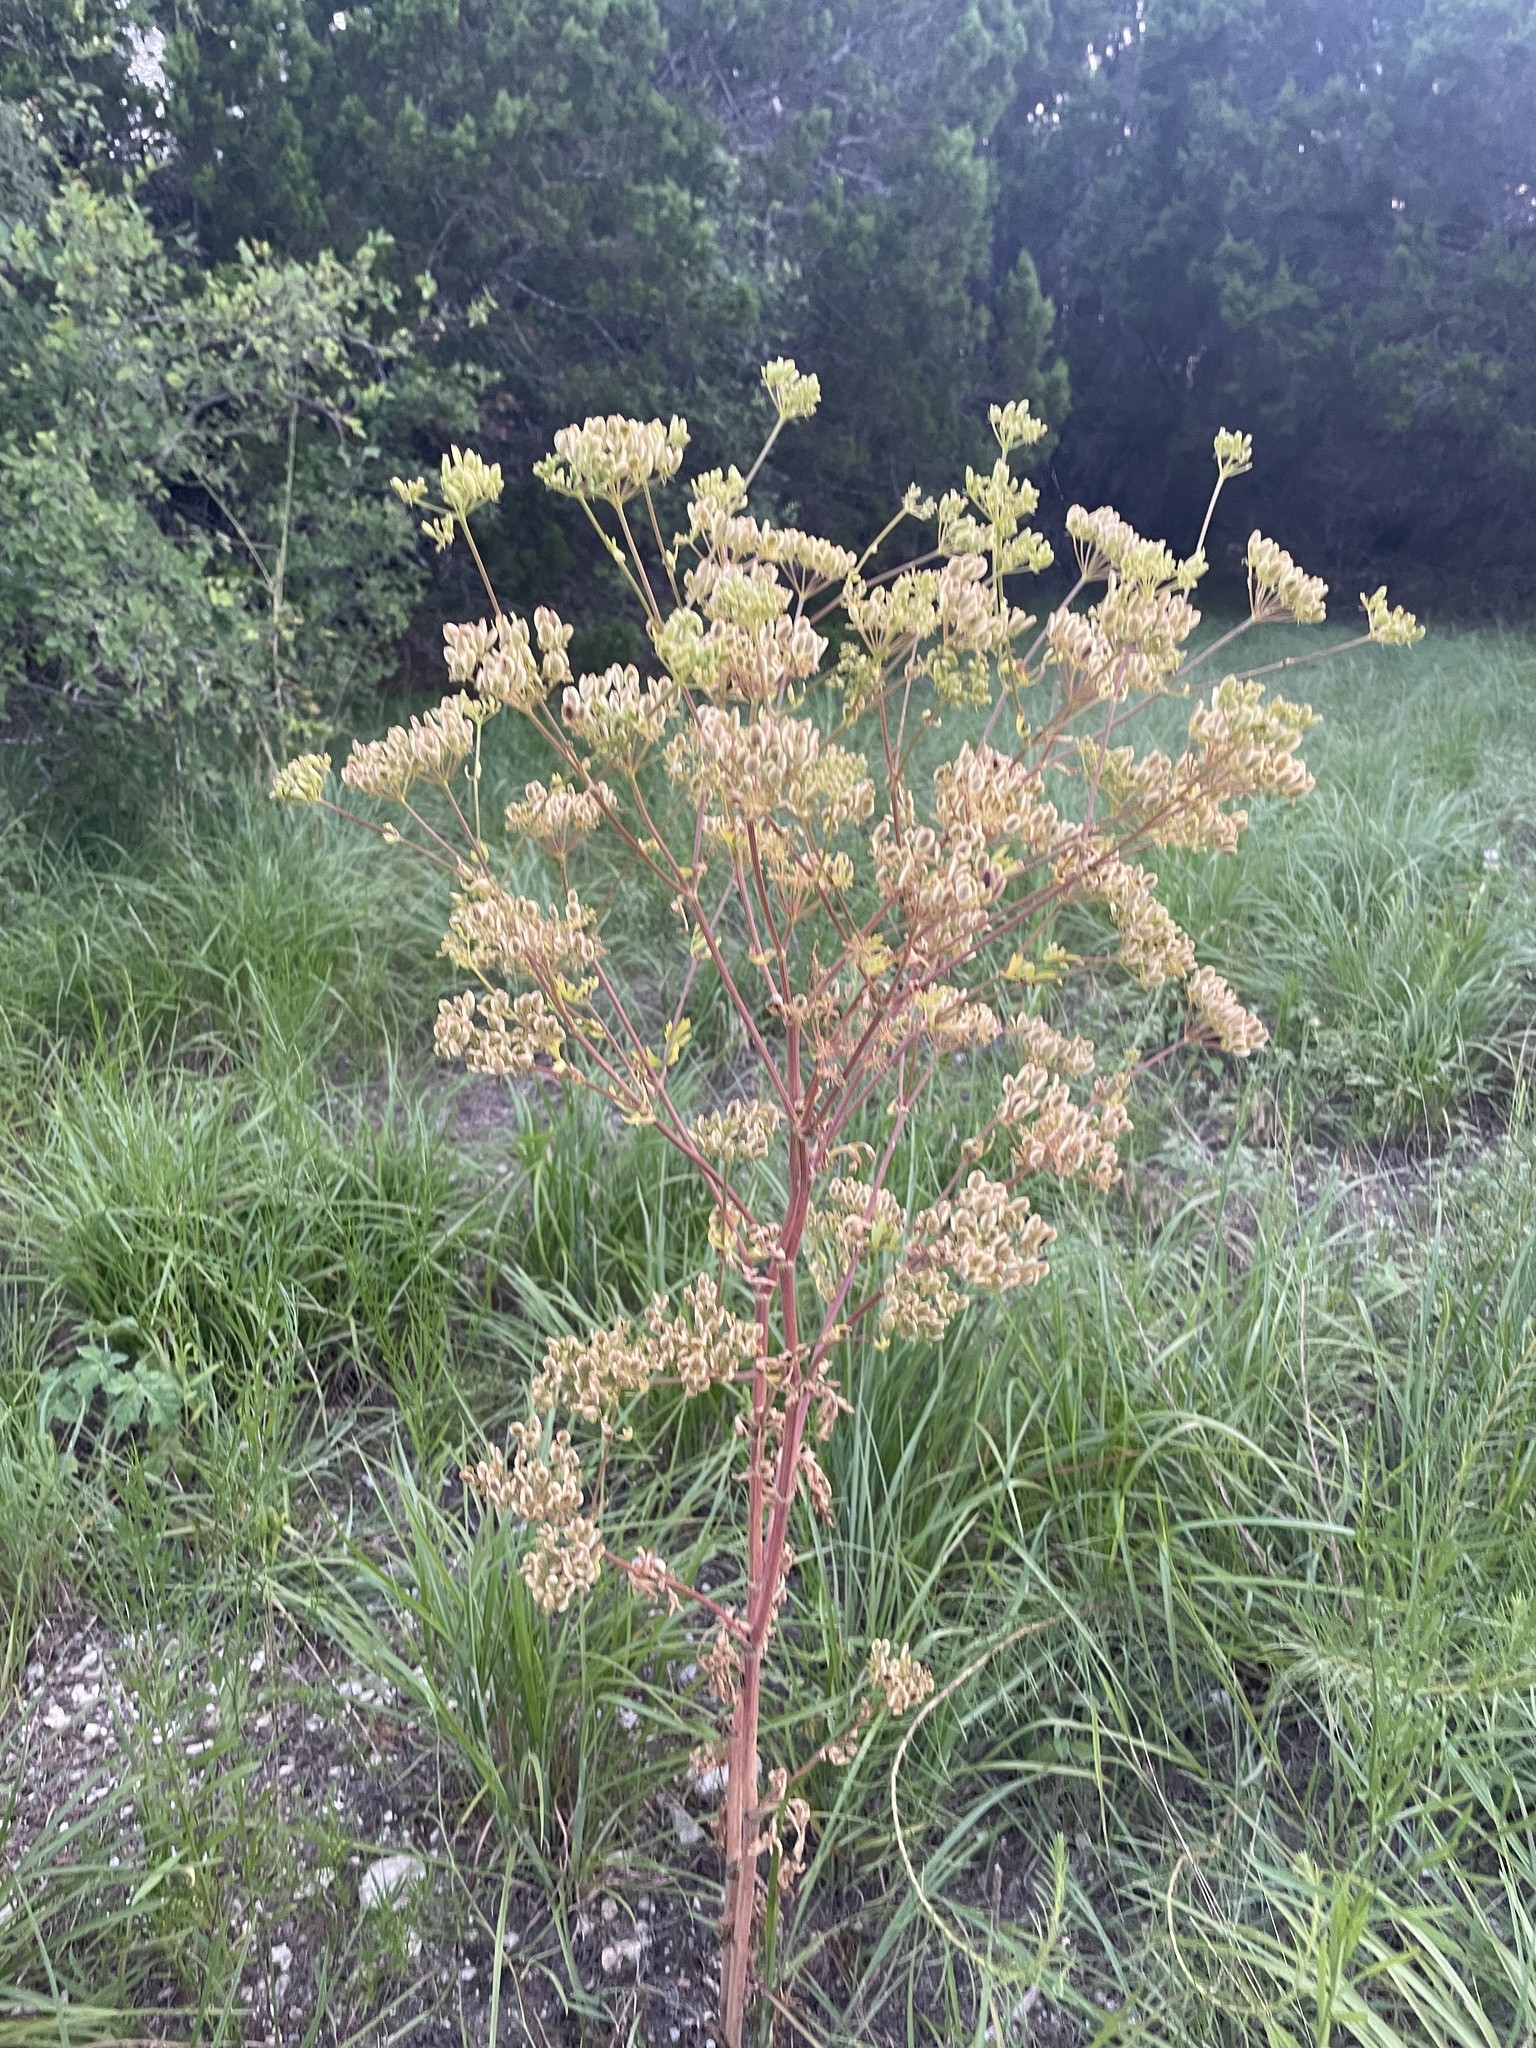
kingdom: Plantae
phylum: Tracheophyta
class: Magnoliopsida
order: Apiales
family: Apiaceae
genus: Polytaenia
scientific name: Polytaenia texana
